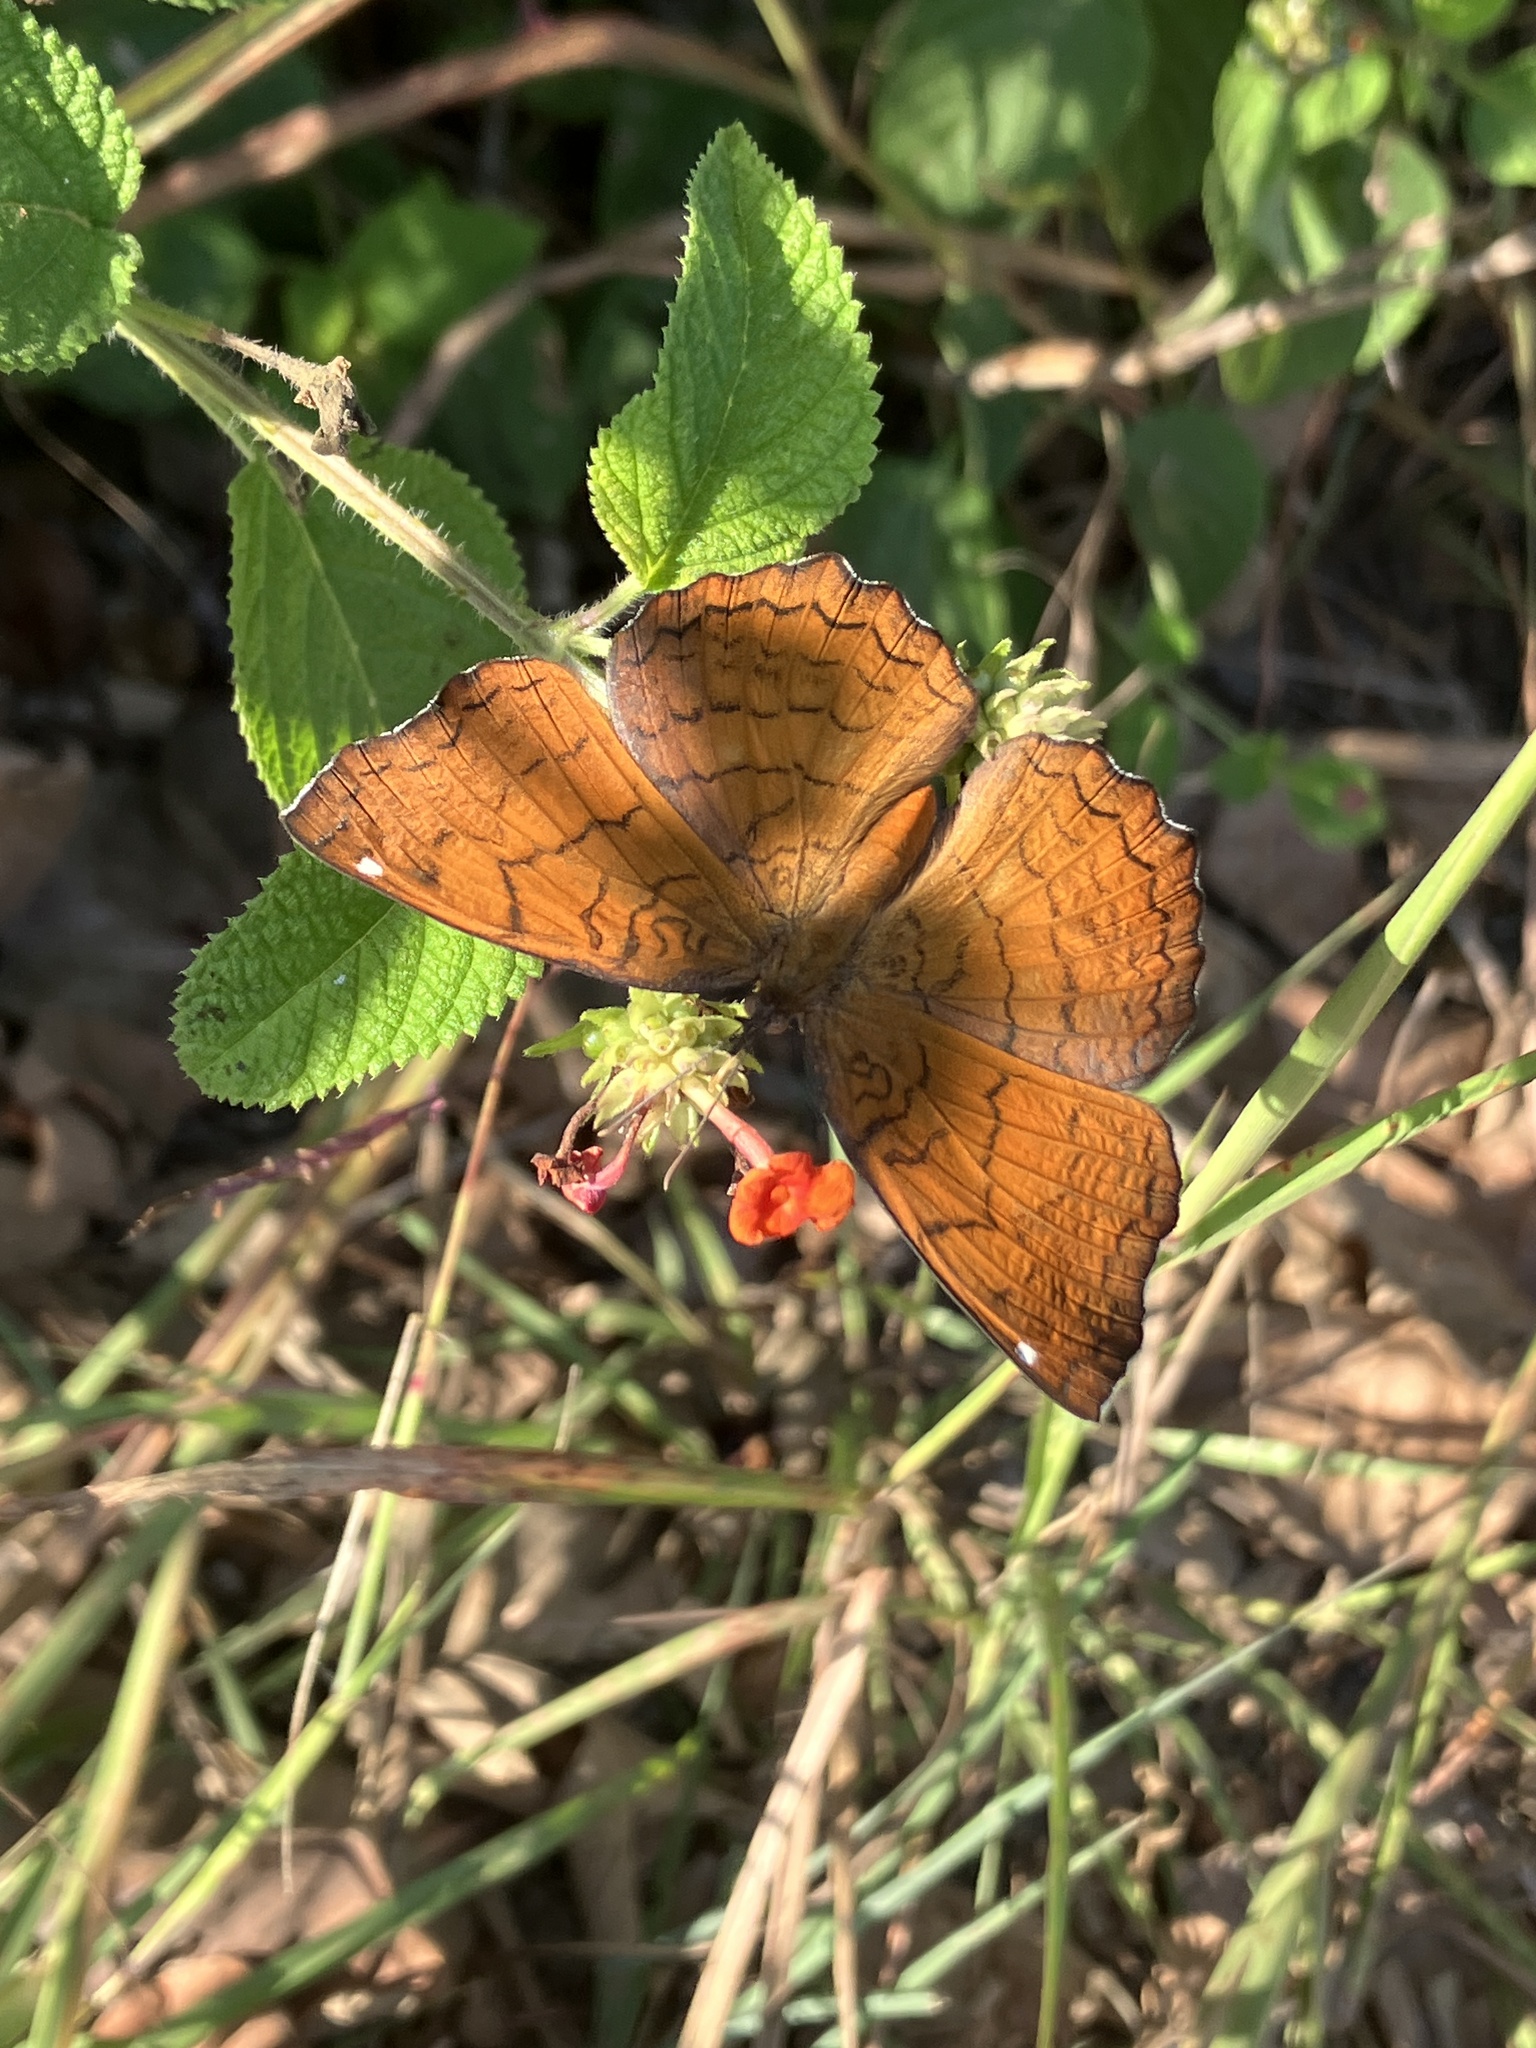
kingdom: Animalia
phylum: Arthropoda
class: Insecta
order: Lepidoptera
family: Nymphalidae
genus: Ariadne
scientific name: Ariadne ariadne
